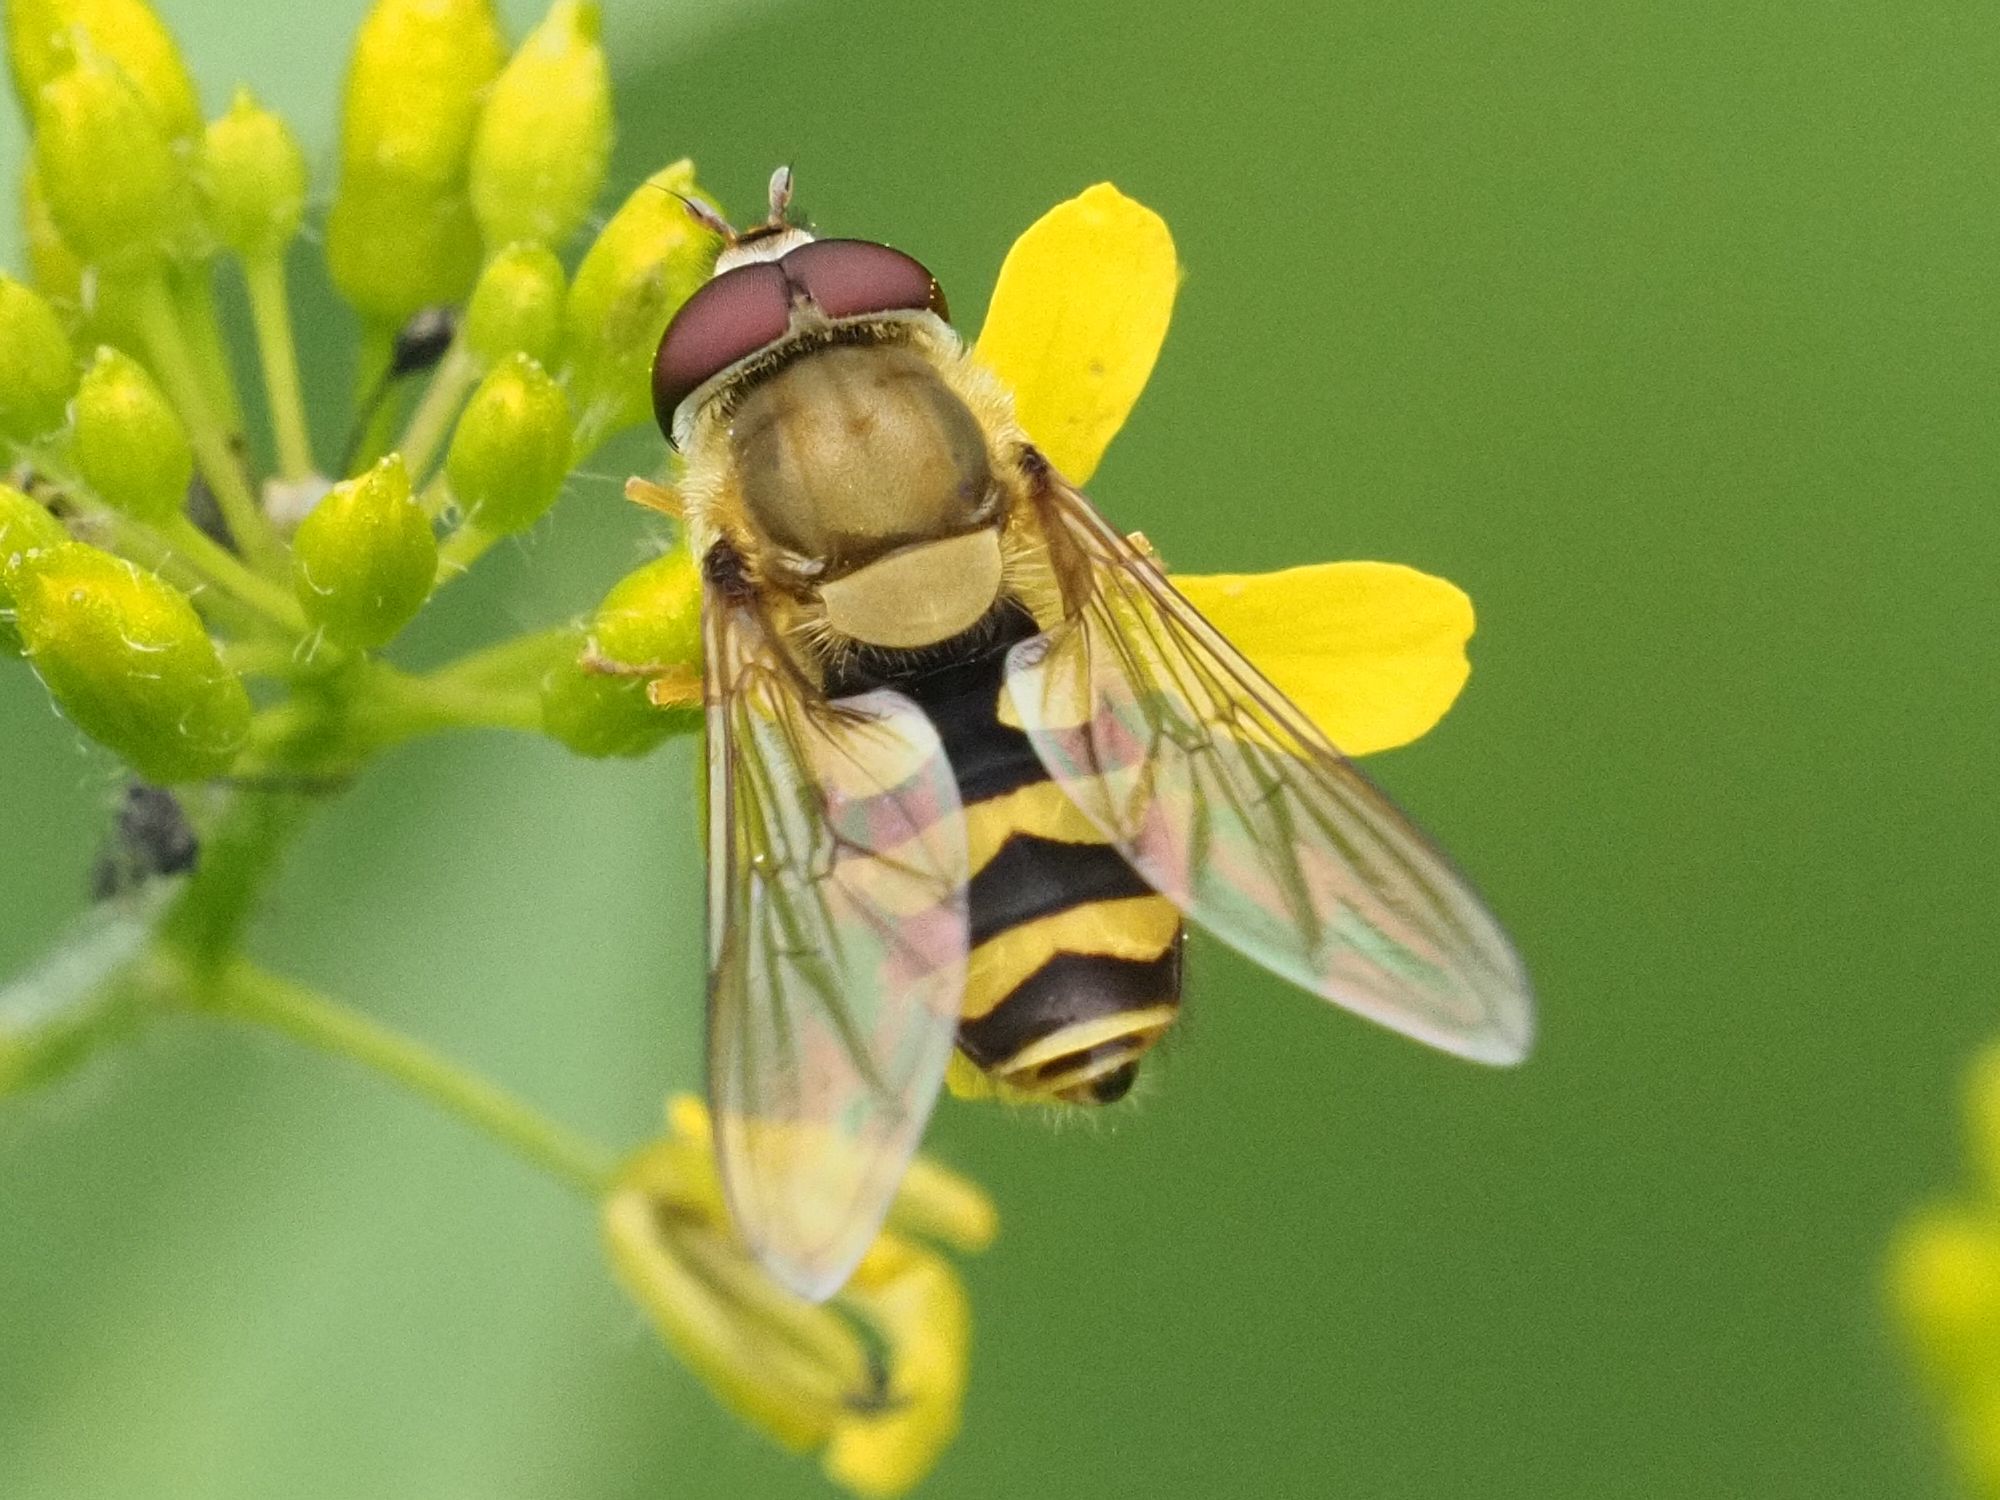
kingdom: Animalia
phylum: Arthropoda
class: Insecta
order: Diptera
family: Syrphidae
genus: Syrphus
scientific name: Syrphus
